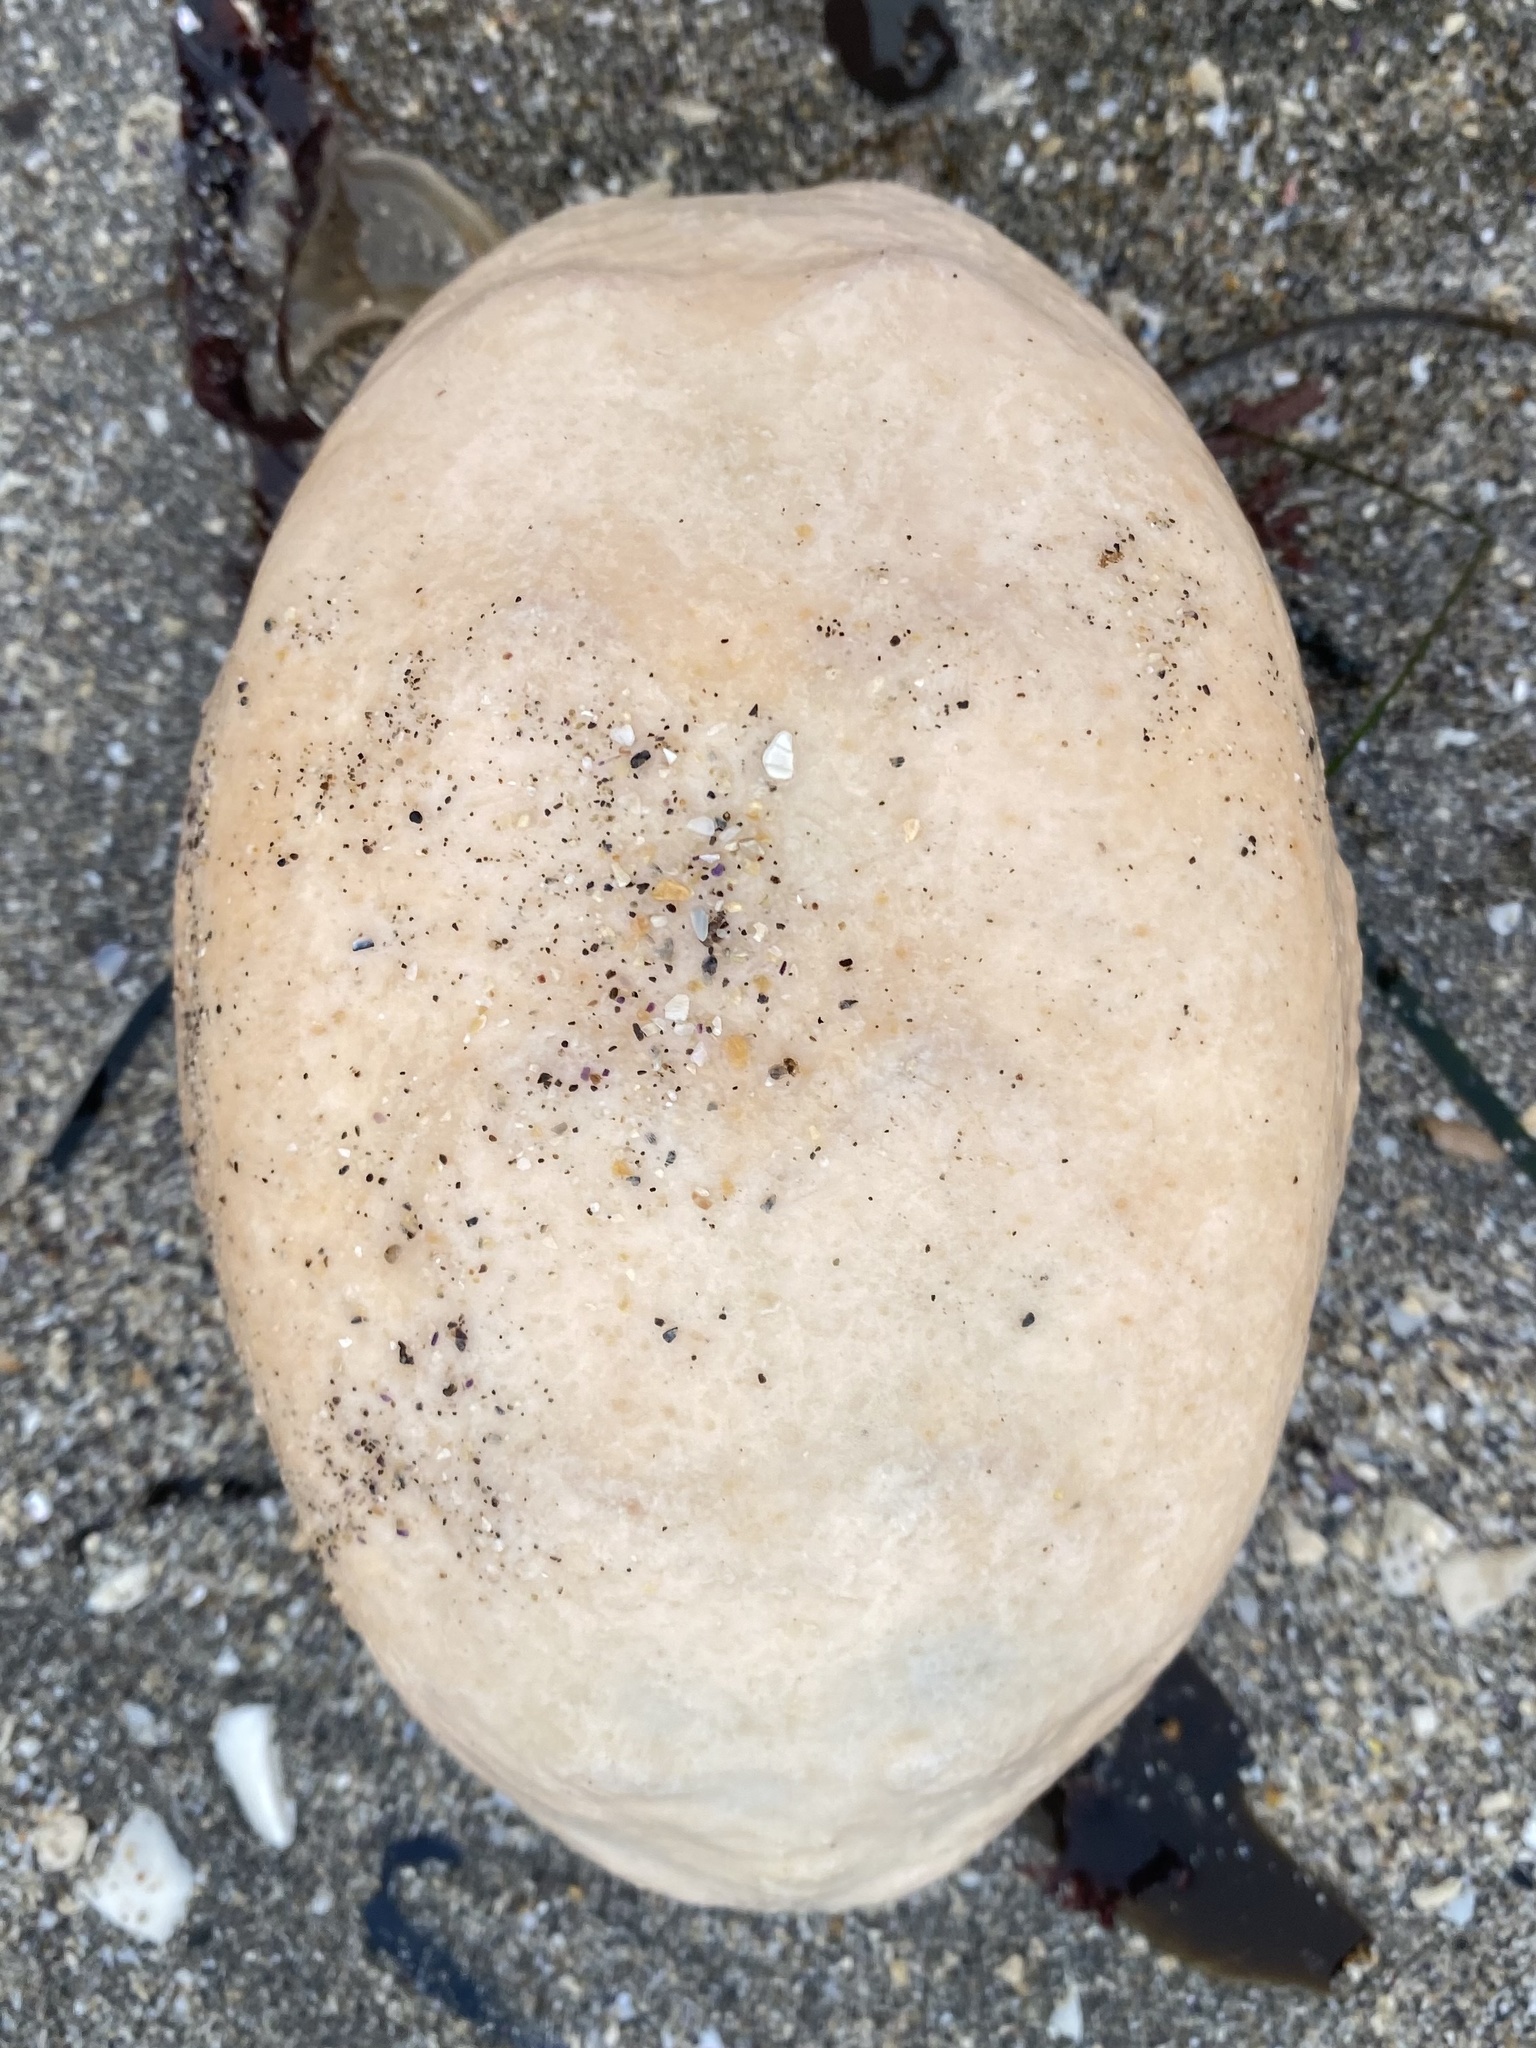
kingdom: Animalia
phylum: Mollusca
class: Polyplacophora
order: Chitonida
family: Acanthochitonidae
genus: Cryptochiton
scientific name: Cryptochiton stelleri
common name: Giant pacific chiton
